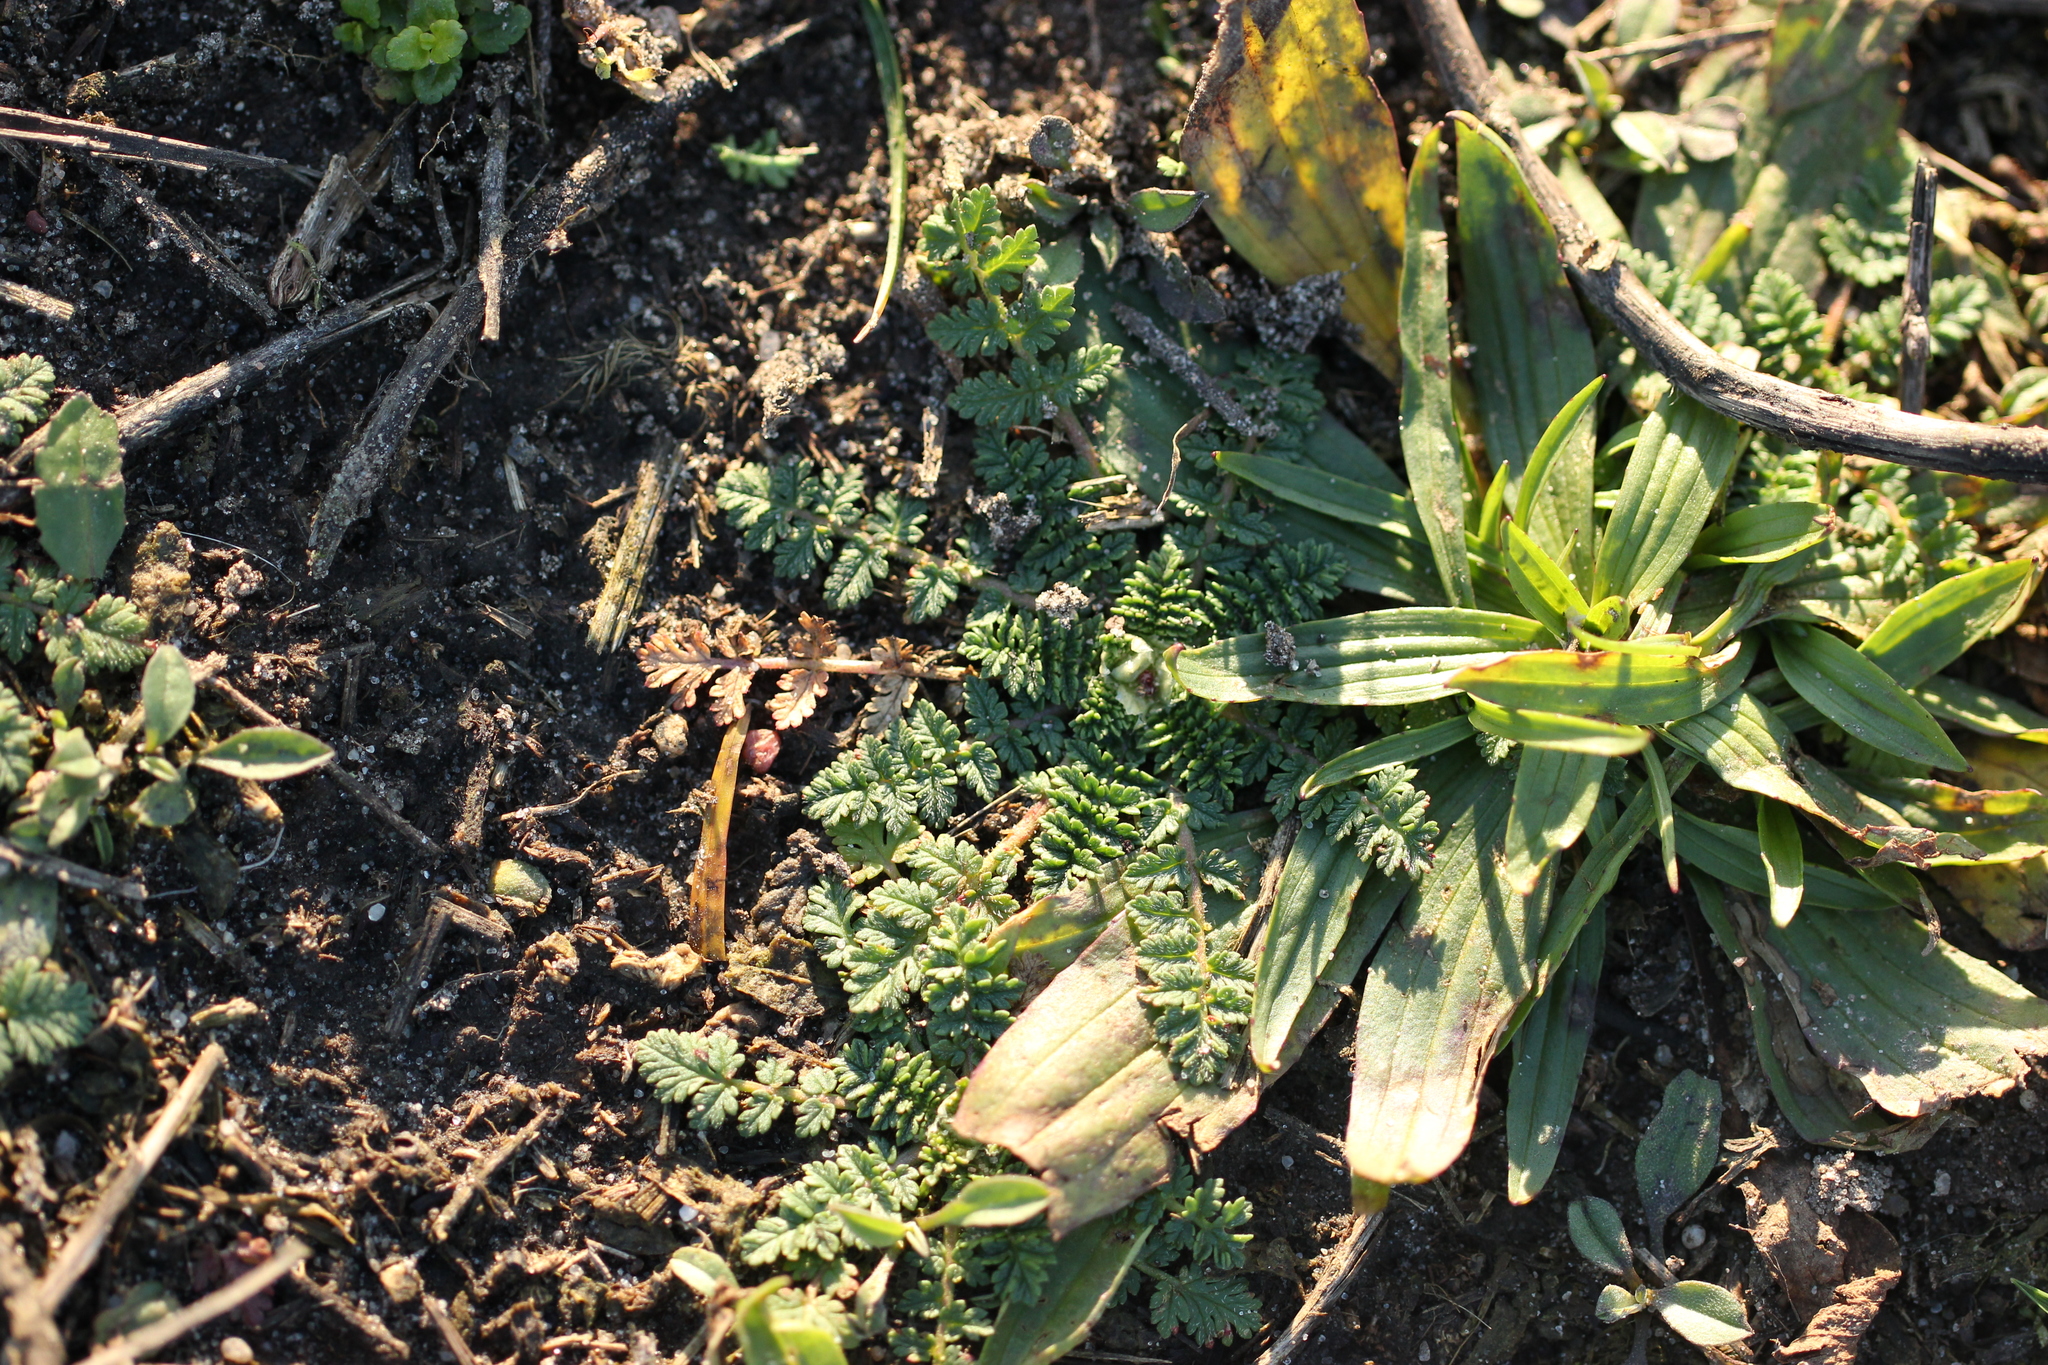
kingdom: Plantae
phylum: Tracheophyta
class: Magnoliopsida
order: Geraniales
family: Geraniaceae
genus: Erodium
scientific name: Erodium cicutarium
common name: Common stork's-bill
